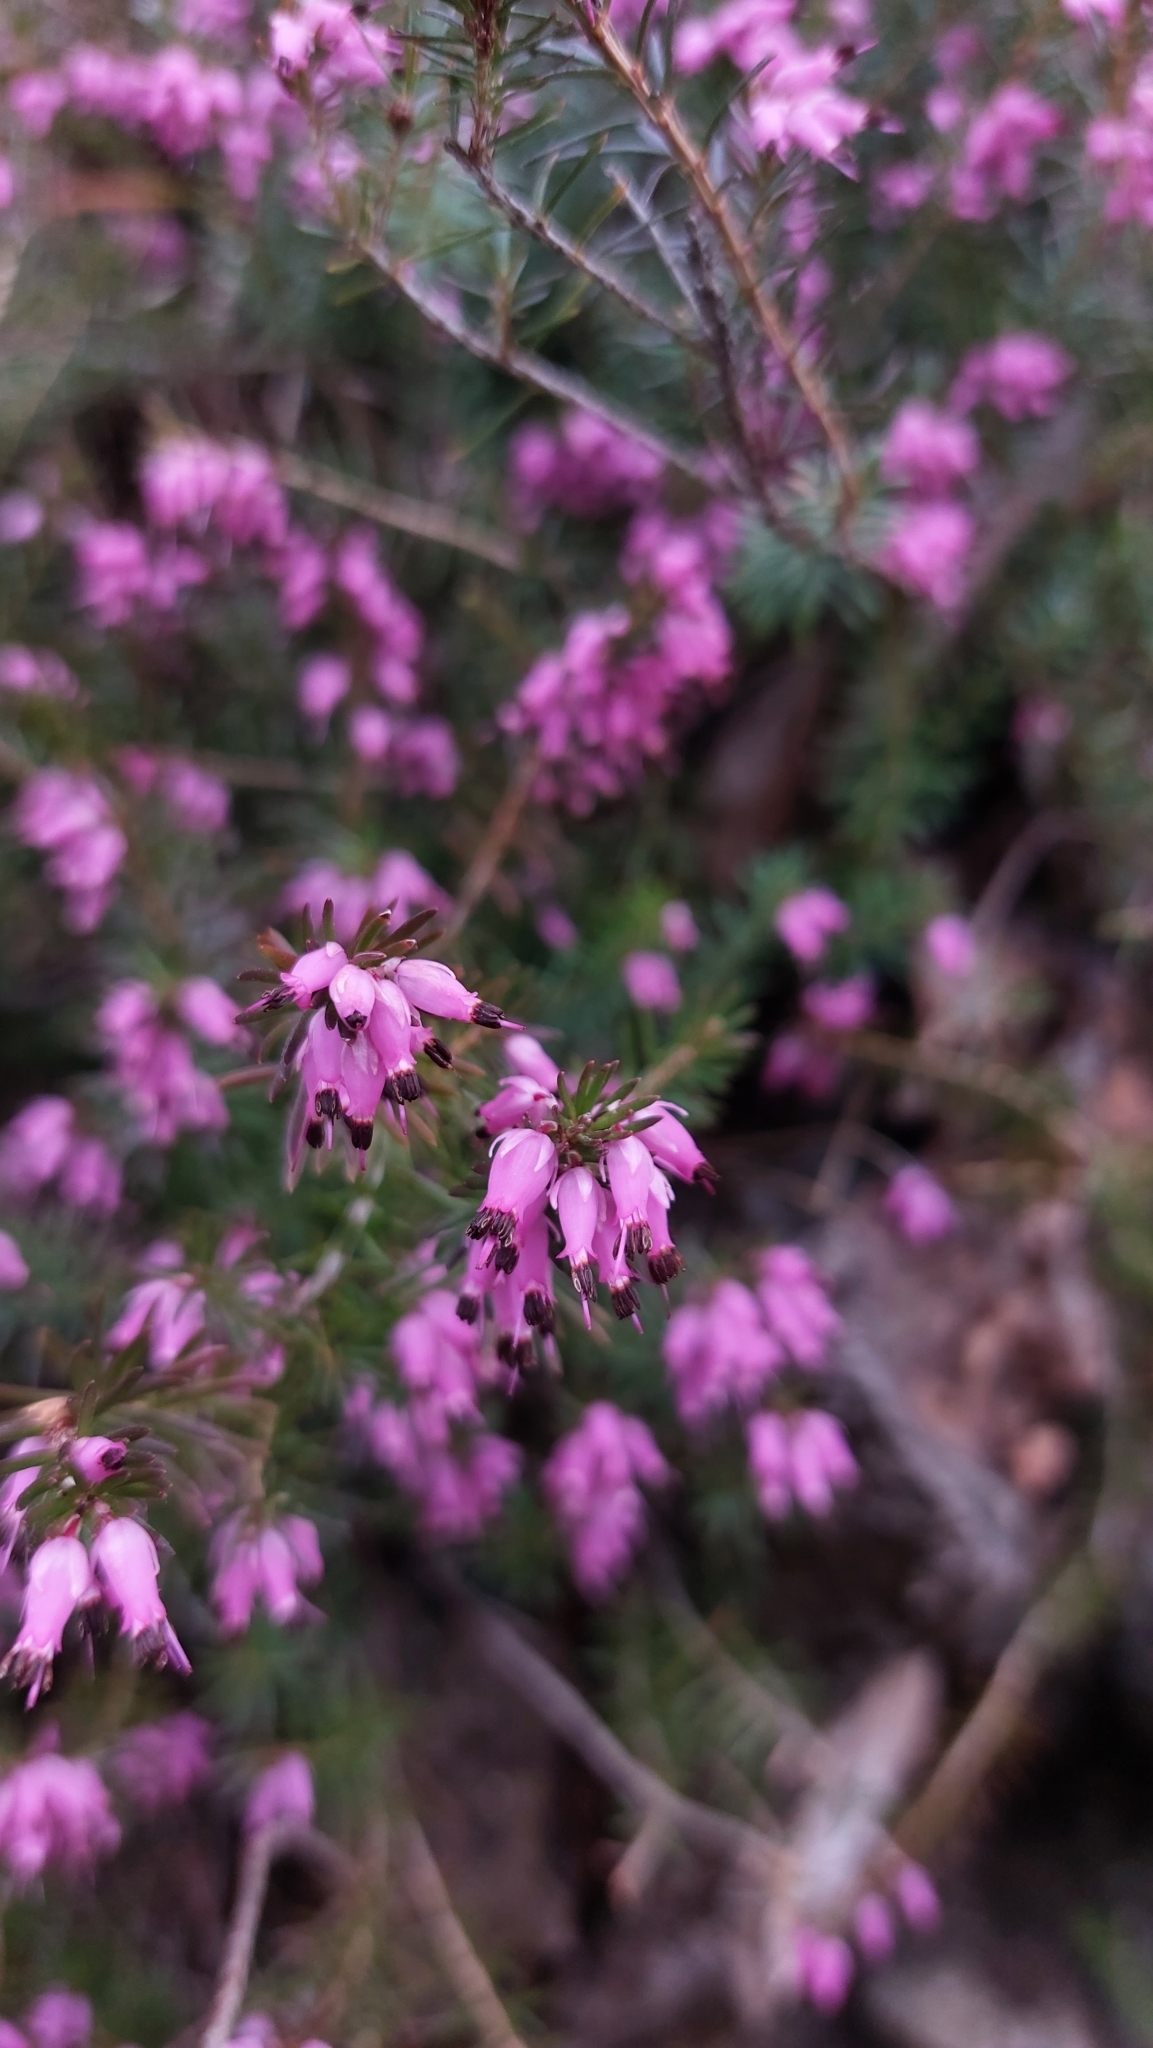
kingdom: Plantae
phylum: Tracheophyta
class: Magnoliopsida
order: Ericales
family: Ericaceae
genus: Erica
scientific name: Erica carnea
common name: Winter heath
